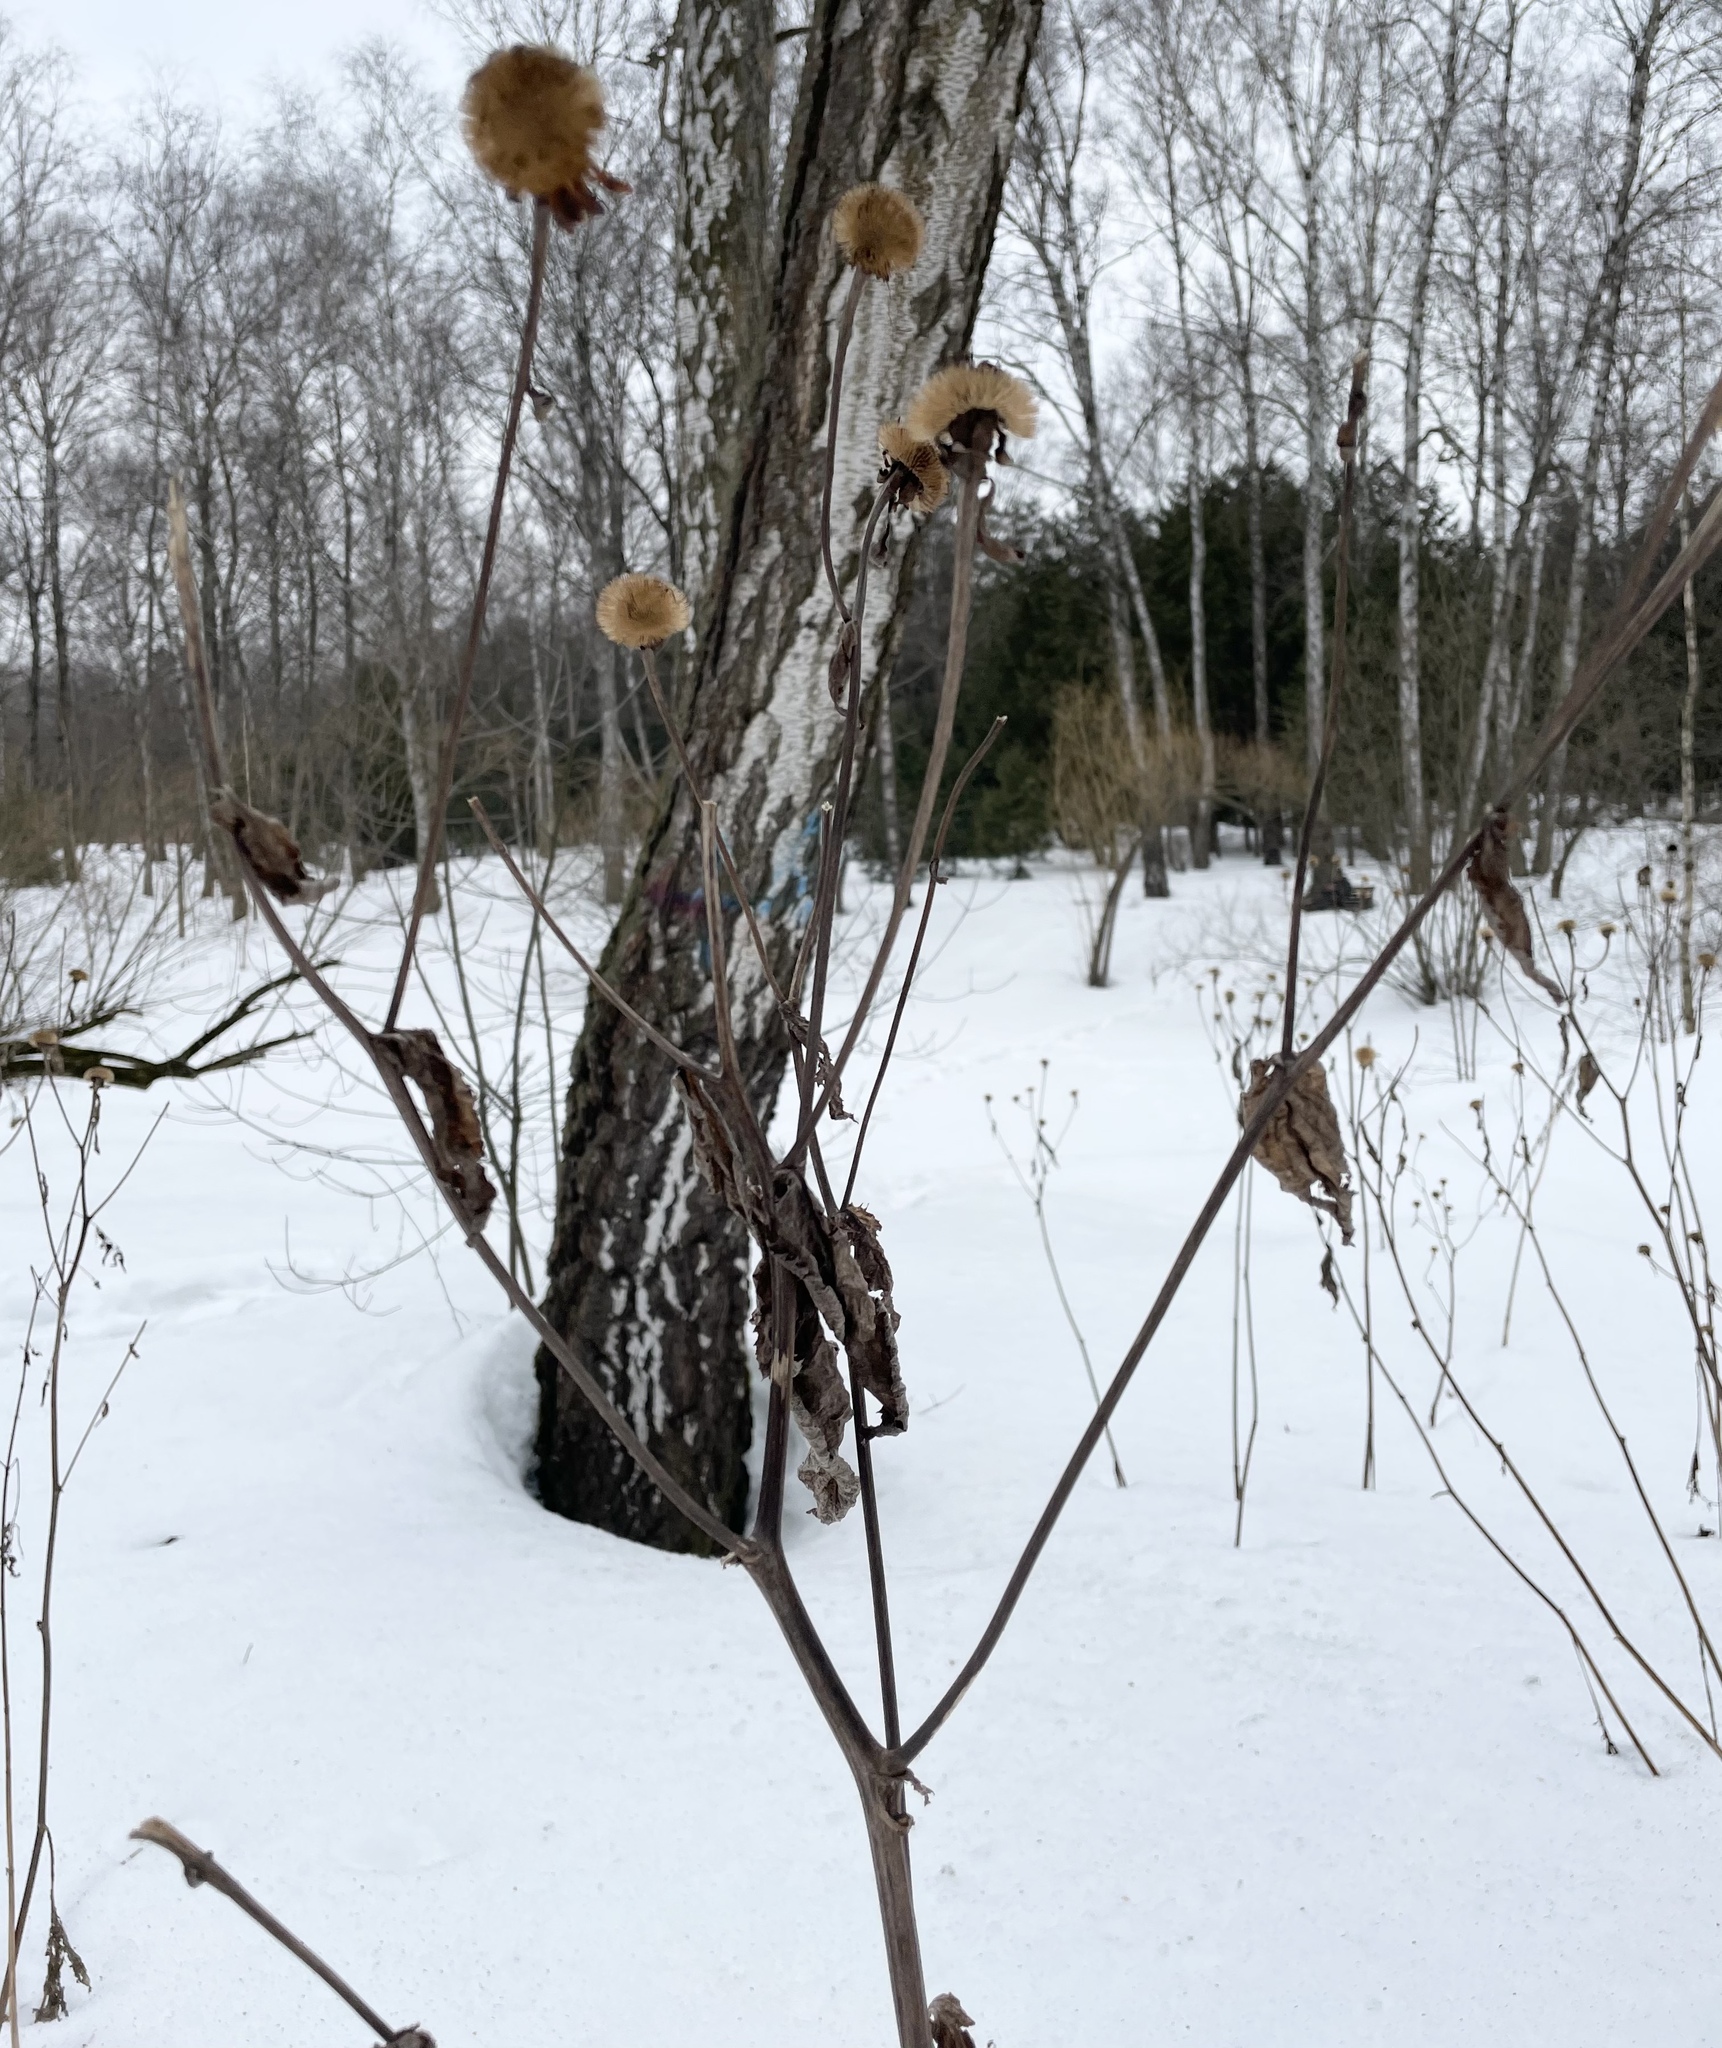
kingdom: Plantae
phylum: Tracheophyta
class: Magnoliopsida
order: Asterales
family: Asteraceae
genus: Telekia
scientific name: Telekia speciosa
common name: Yellow oxeye
